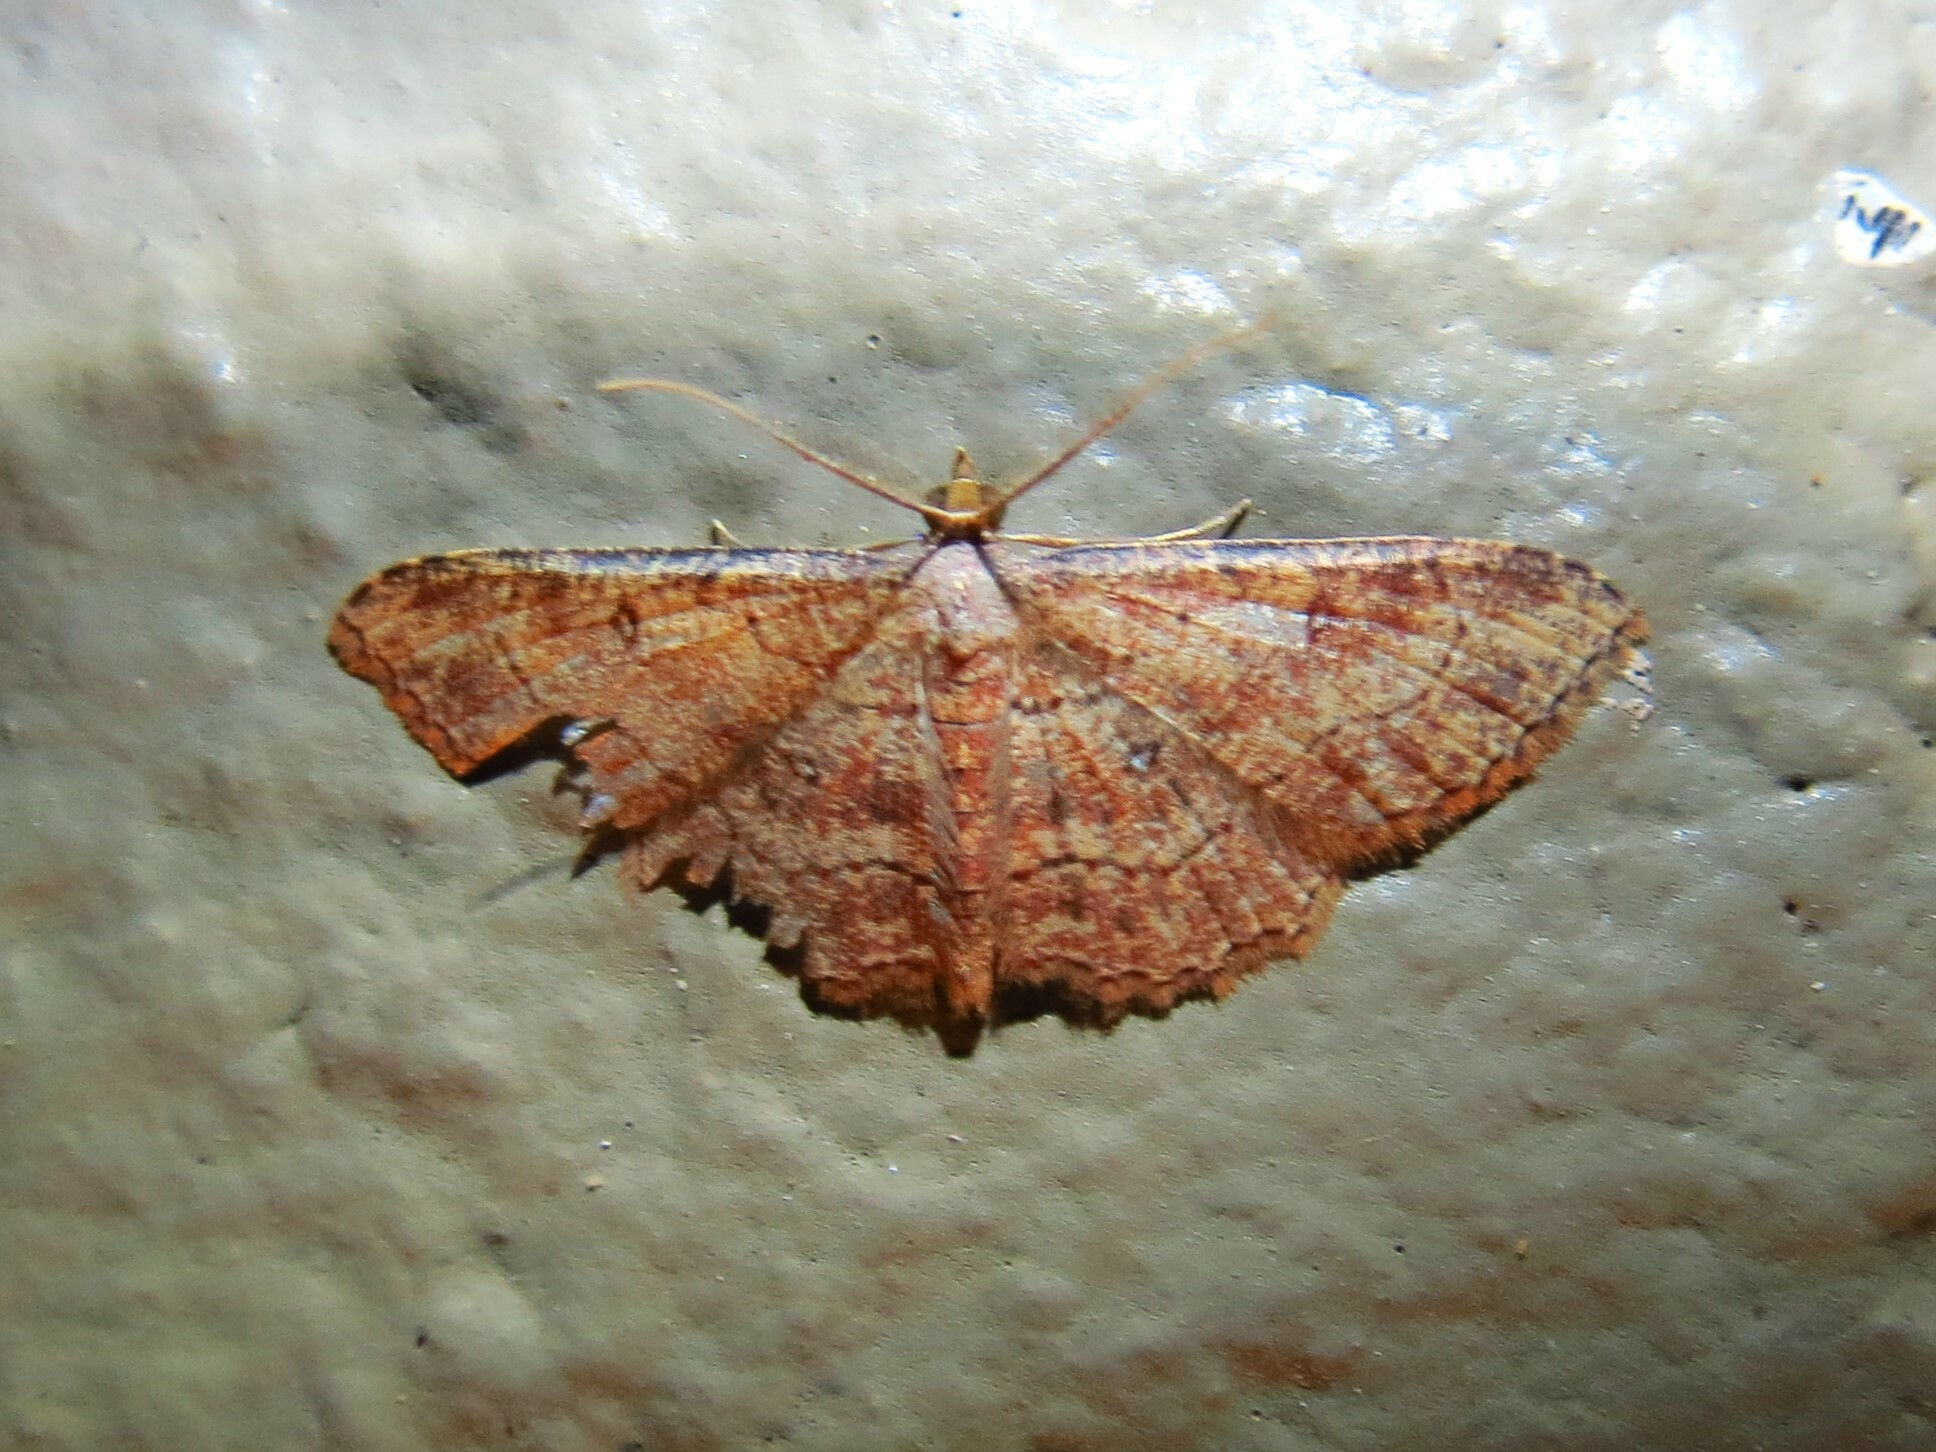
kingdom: Animalia
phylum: Arthropoda
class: Insecta
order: Lepidoptera
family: Geometridae
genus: Cyclophora
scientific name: Cyclophora nanaria
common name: Cankerworm
